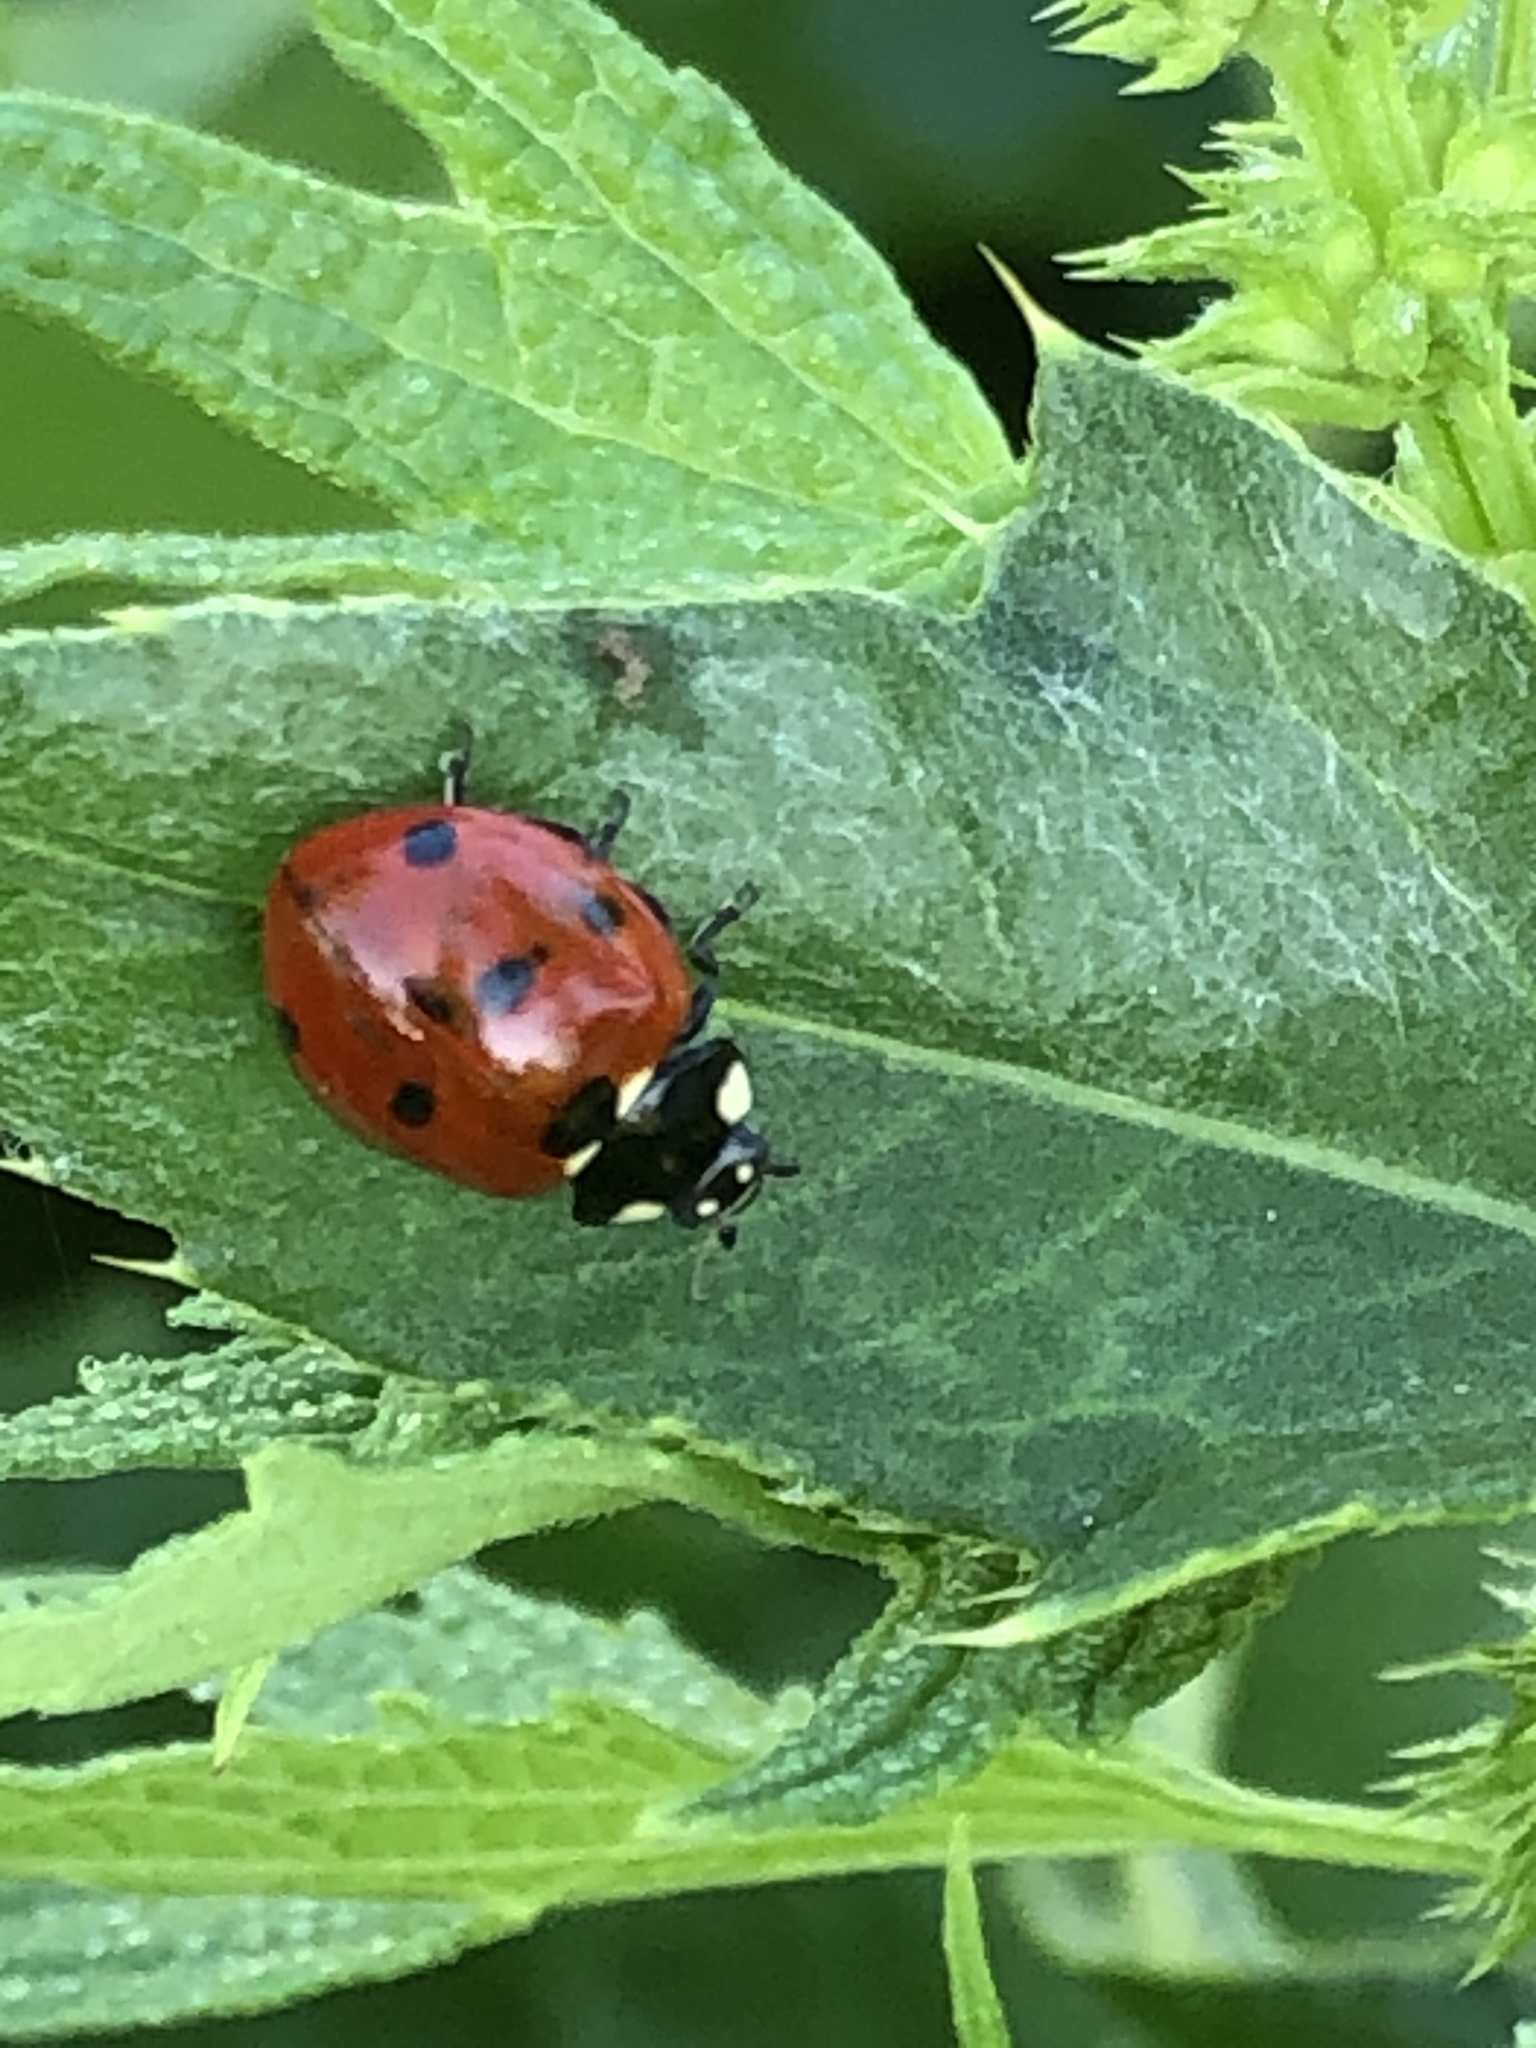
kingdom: Animalia
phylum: Arthropoda
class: Insecta
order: Coleoptera
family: Coccinellidae
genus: Coccinella
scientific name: Coccinella septempunctata
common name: Sevenspotted lady beetle
